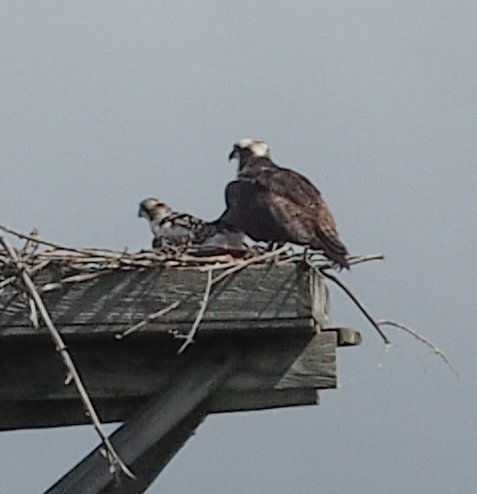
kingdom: Animalia
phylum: Chordata
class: Aves
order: Accipitriformes
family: Pandionidae
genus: Pandion
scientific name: Pandion haliaetus
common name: Osprey
